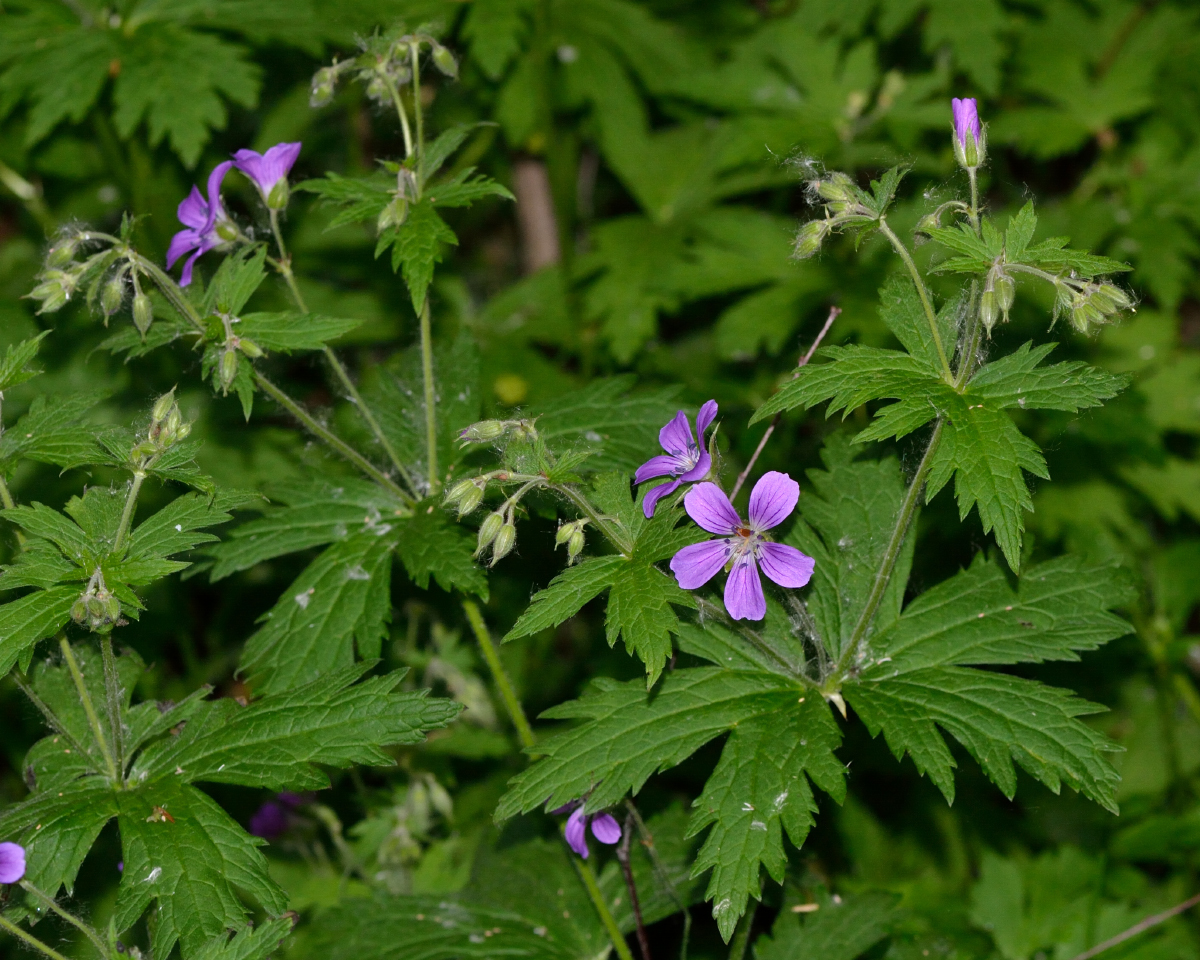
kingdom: Plantae
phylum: Tracheophyta
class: Magnoliopsida
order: Geraniales
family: Geraniaceae
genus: Geranium
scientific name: Geranium sylvaticum
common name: Wood crane's-bill
